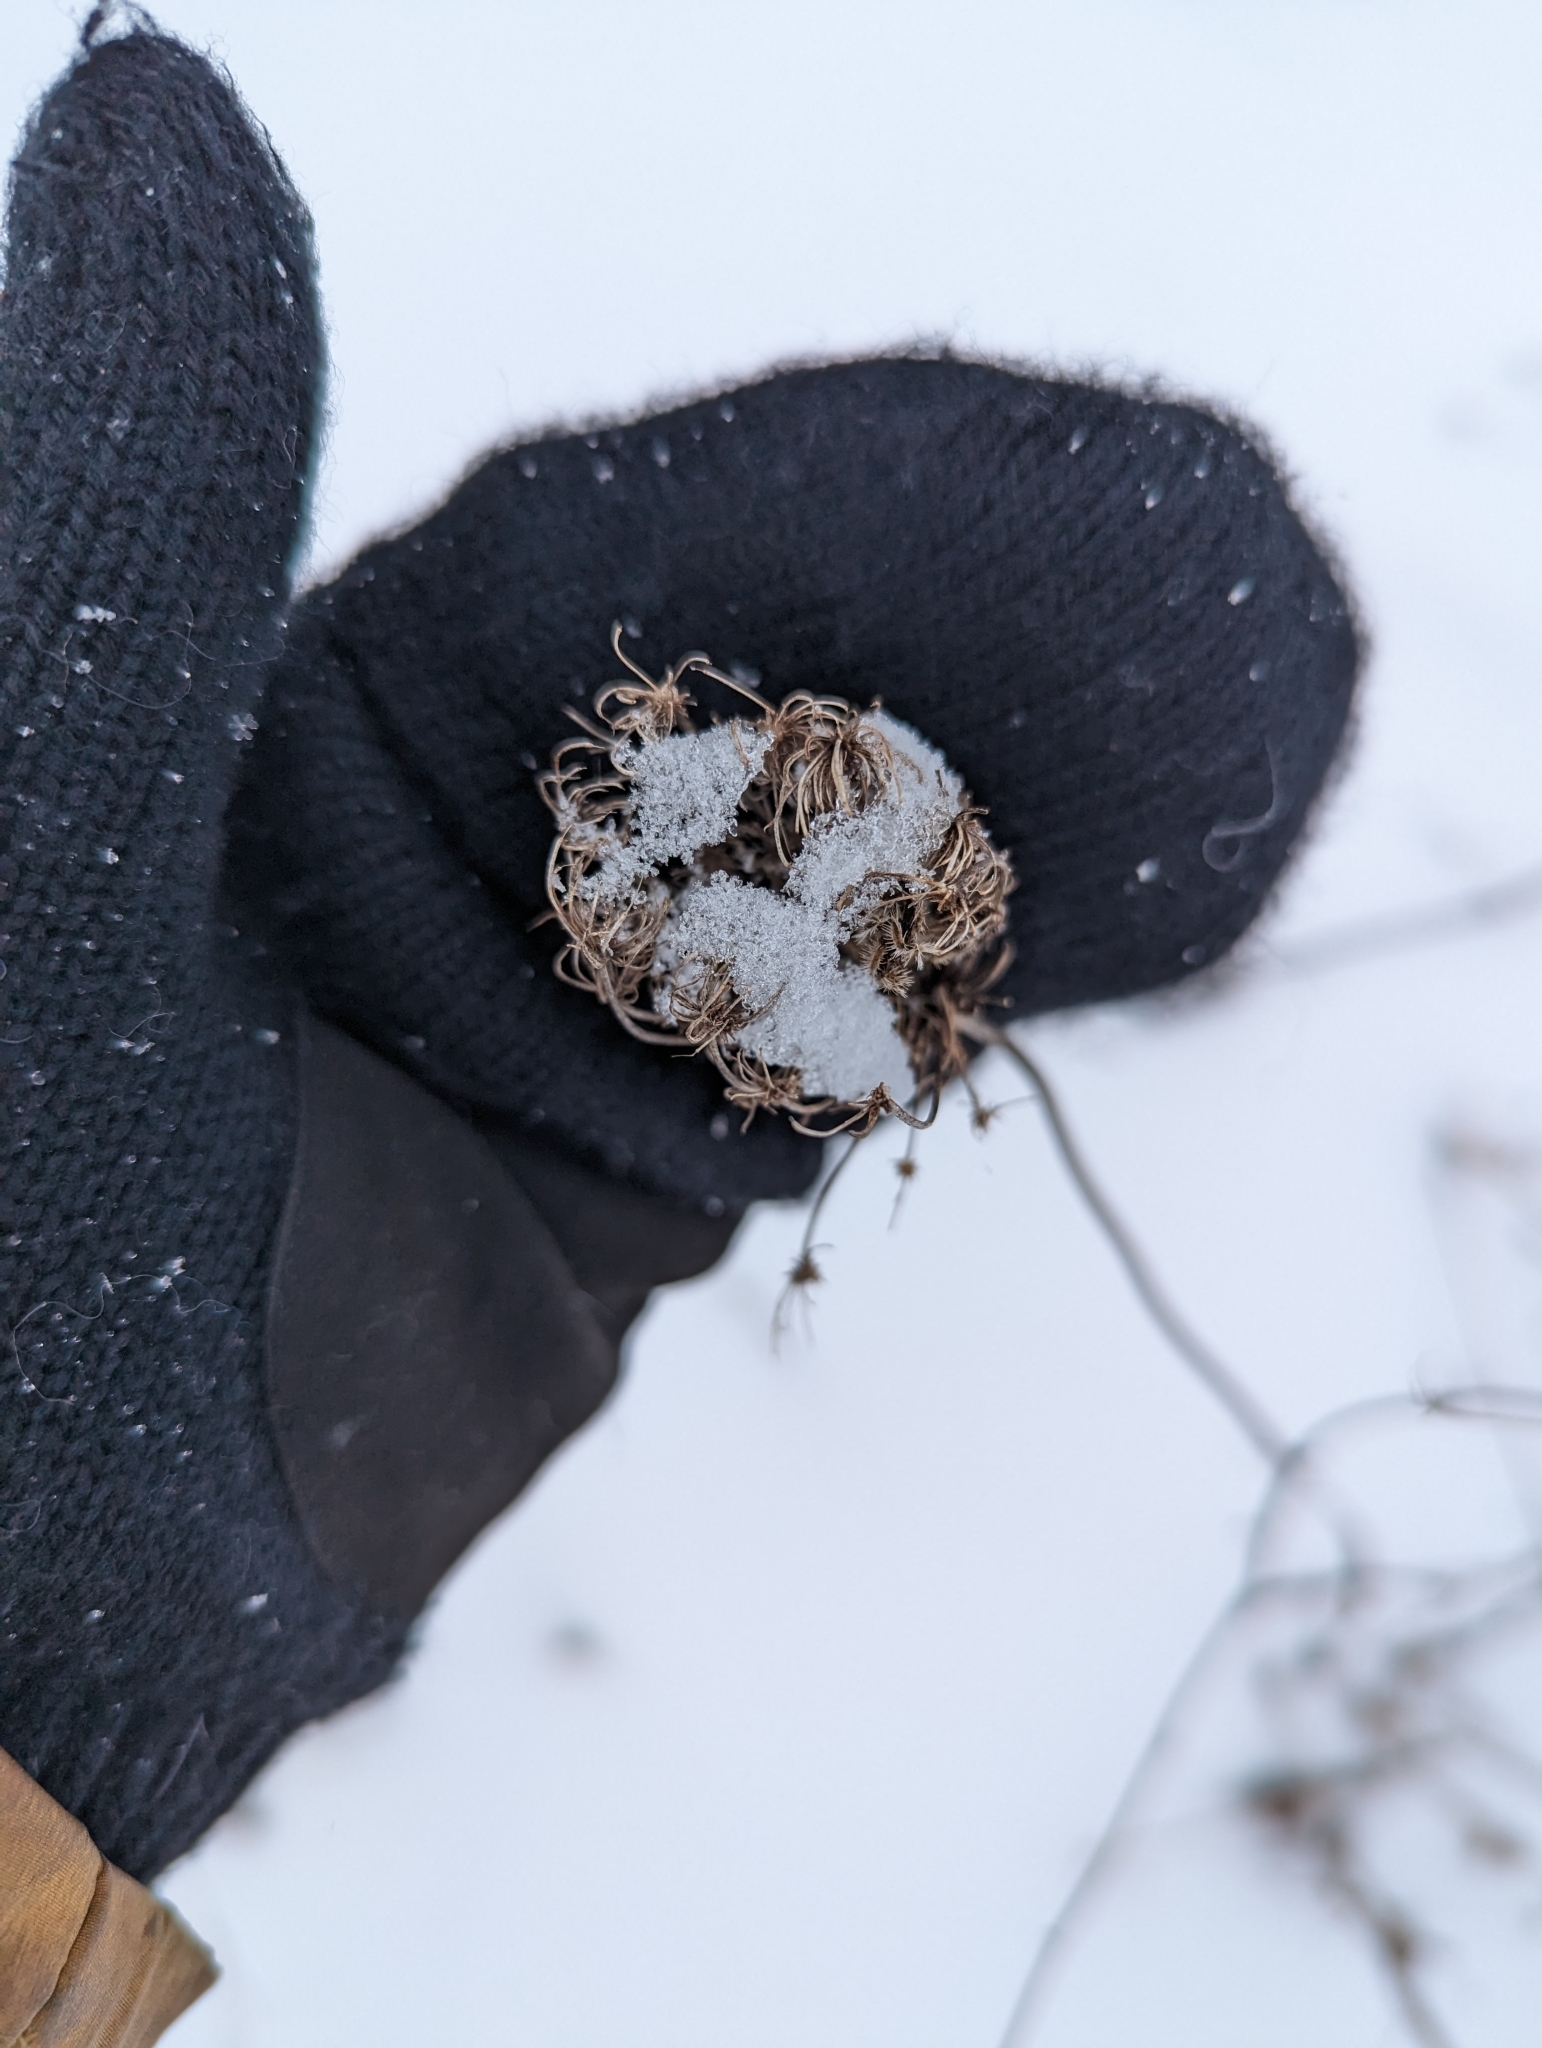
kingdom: Plantae
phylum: Tracheophyta
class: Magnoliopsida
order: Apiales
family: Apiaceae
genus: Daucus
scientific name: Daucus carota
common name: Wild carrot
